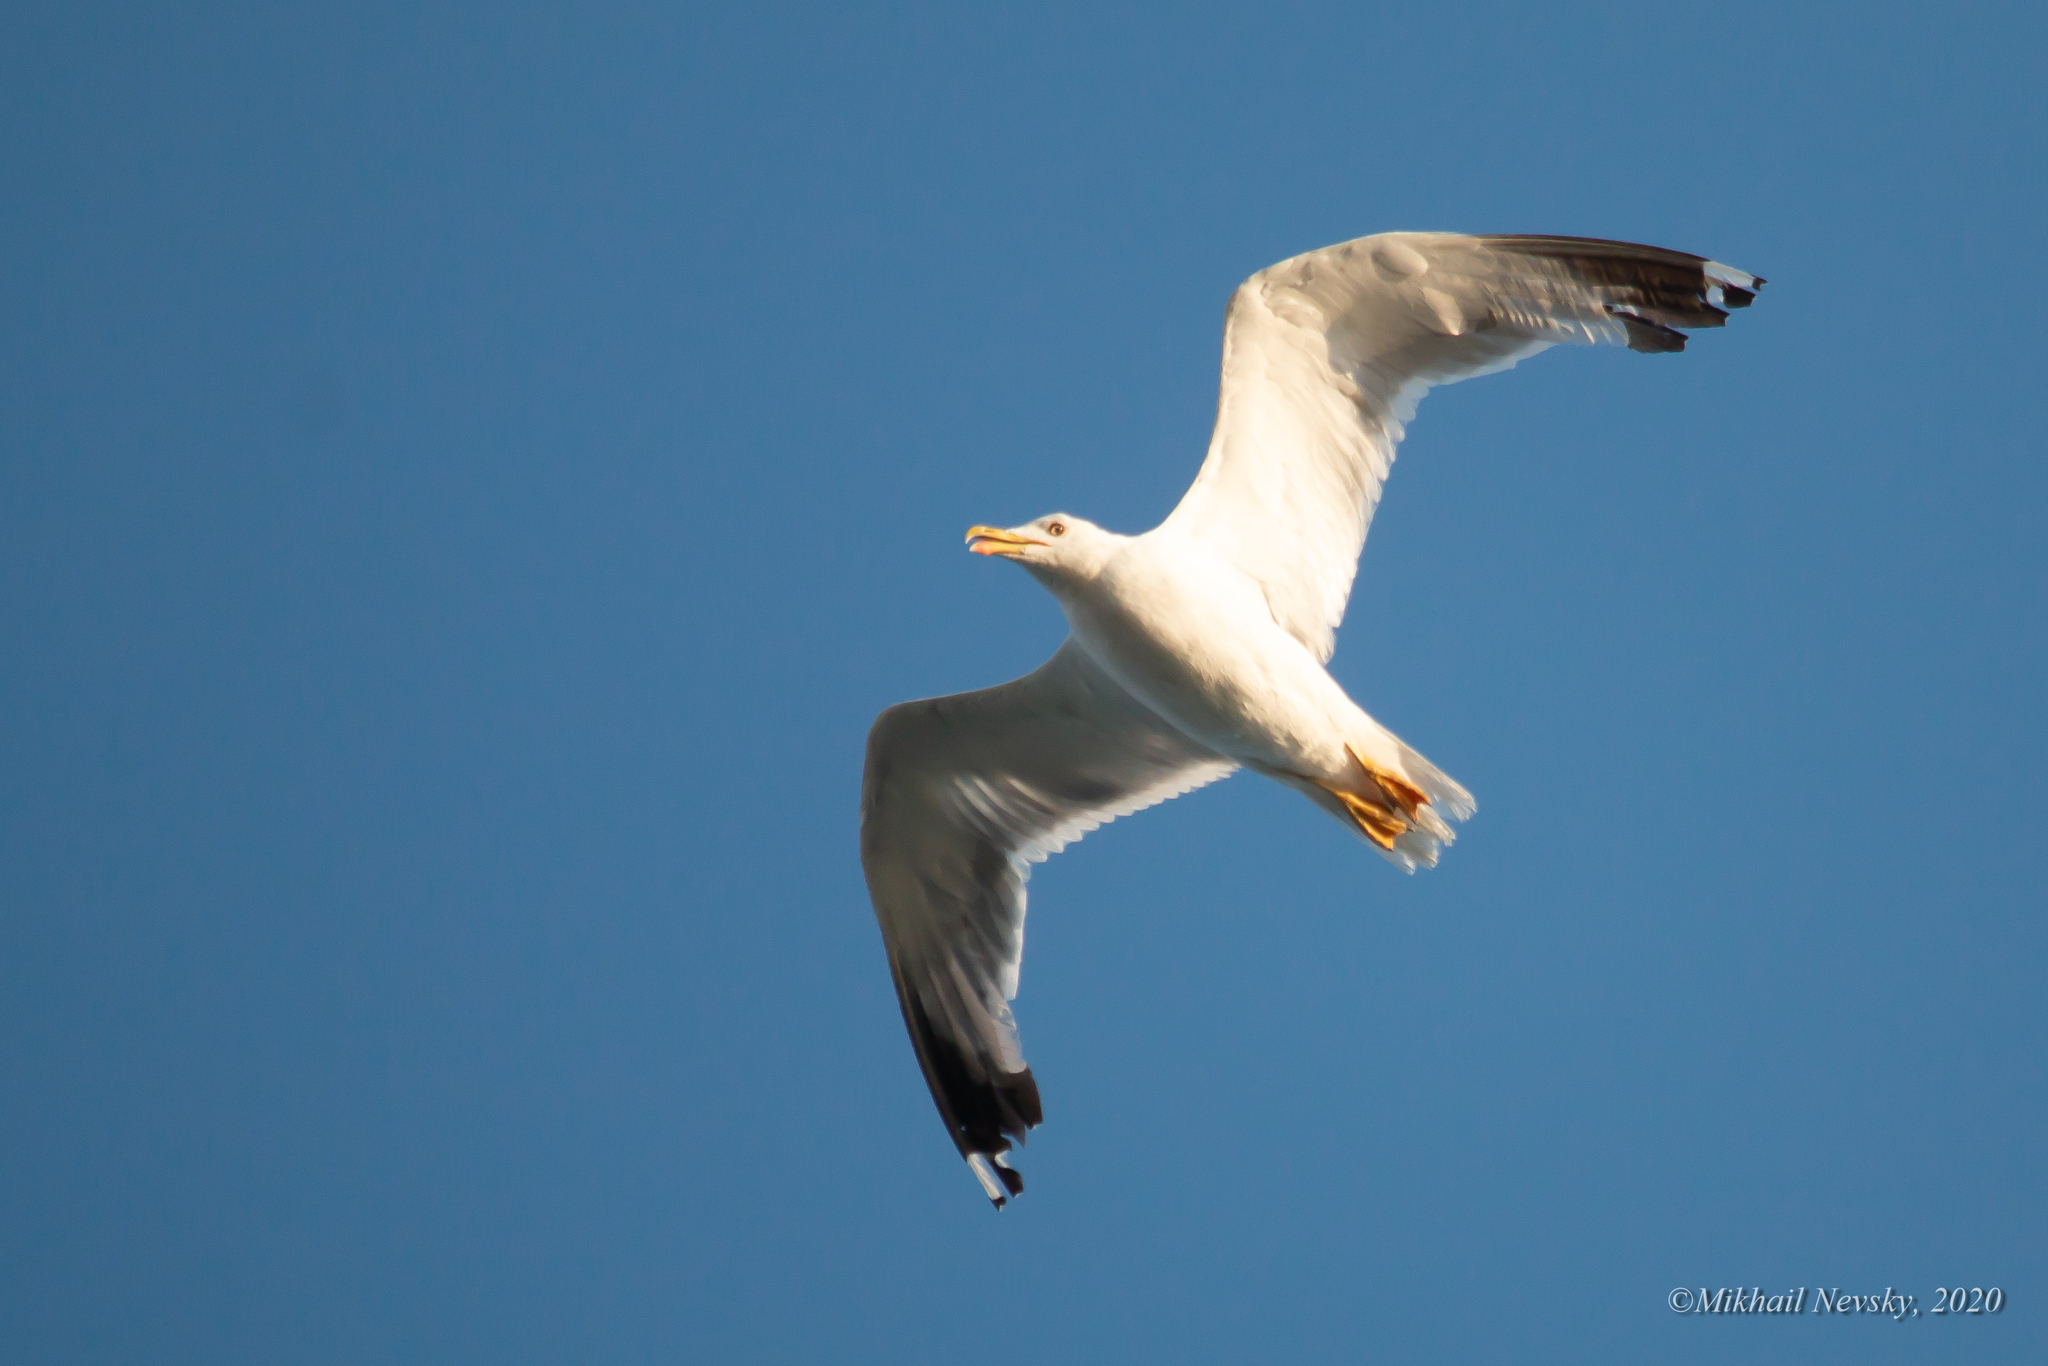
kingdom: Animalia
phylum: Chordata
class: Aves
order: Charadriiformes
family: Laridae
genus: Larus
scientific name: Larus michahellis
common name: Yellow-legged gull
